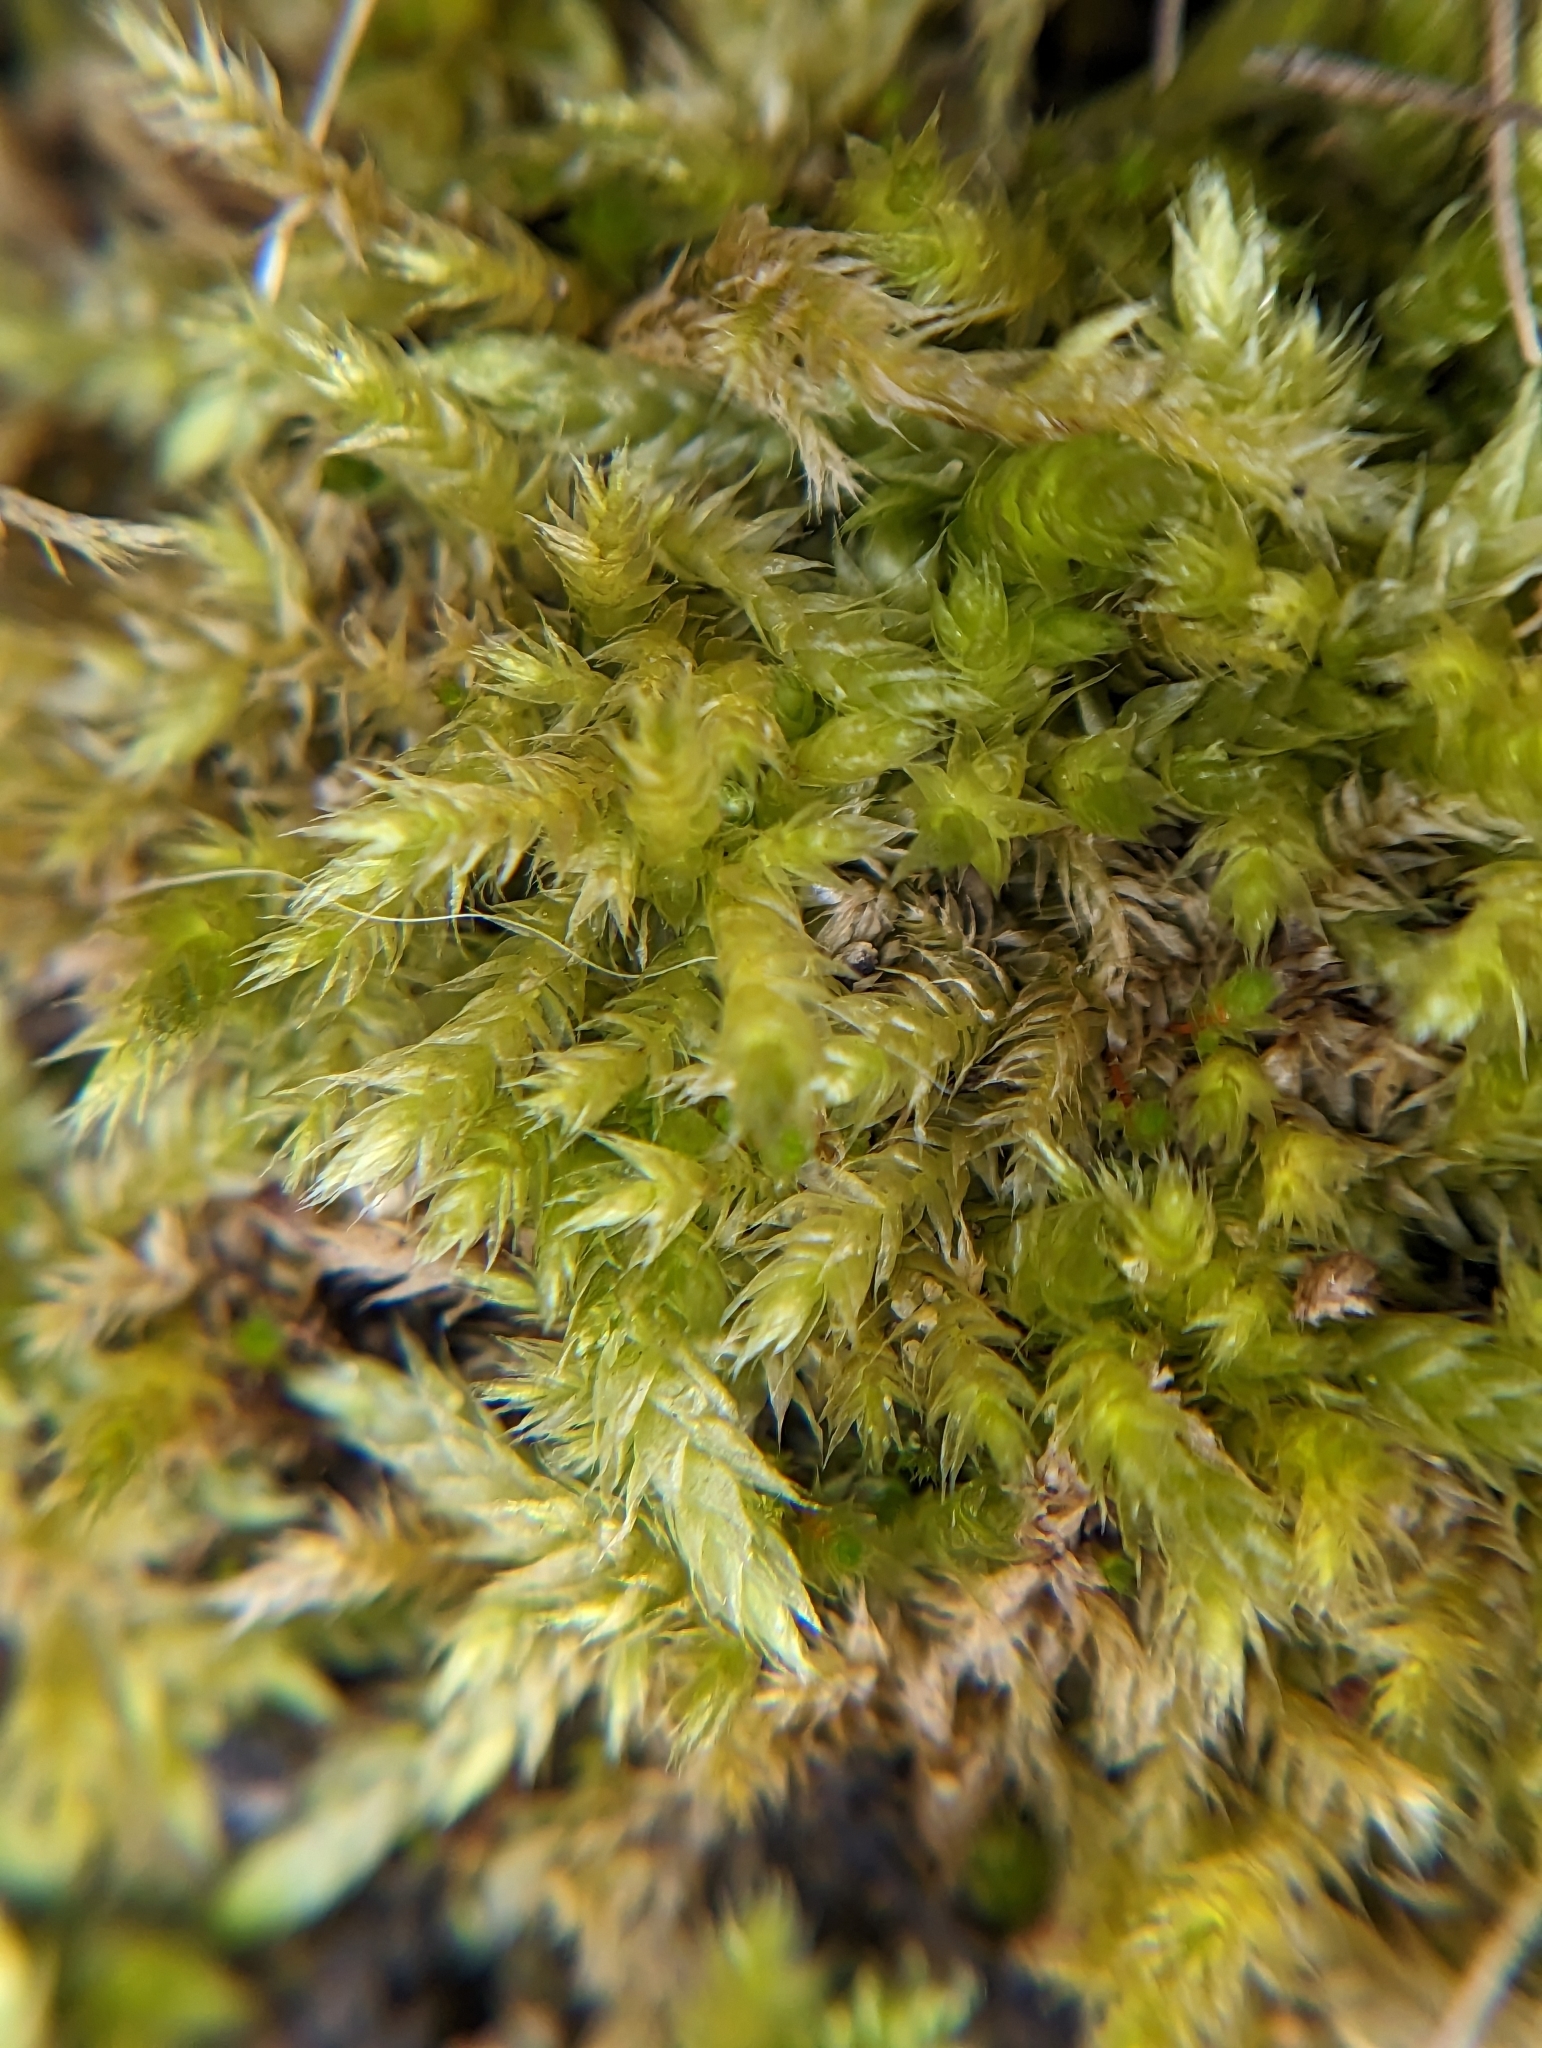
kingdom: Plantae
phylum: Bryophyta
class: Bryopsida
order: Hypnales
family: Callicladiaceae
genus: Callicladium
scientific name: Callicladium haldanianum
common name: Beautiful branch moss
